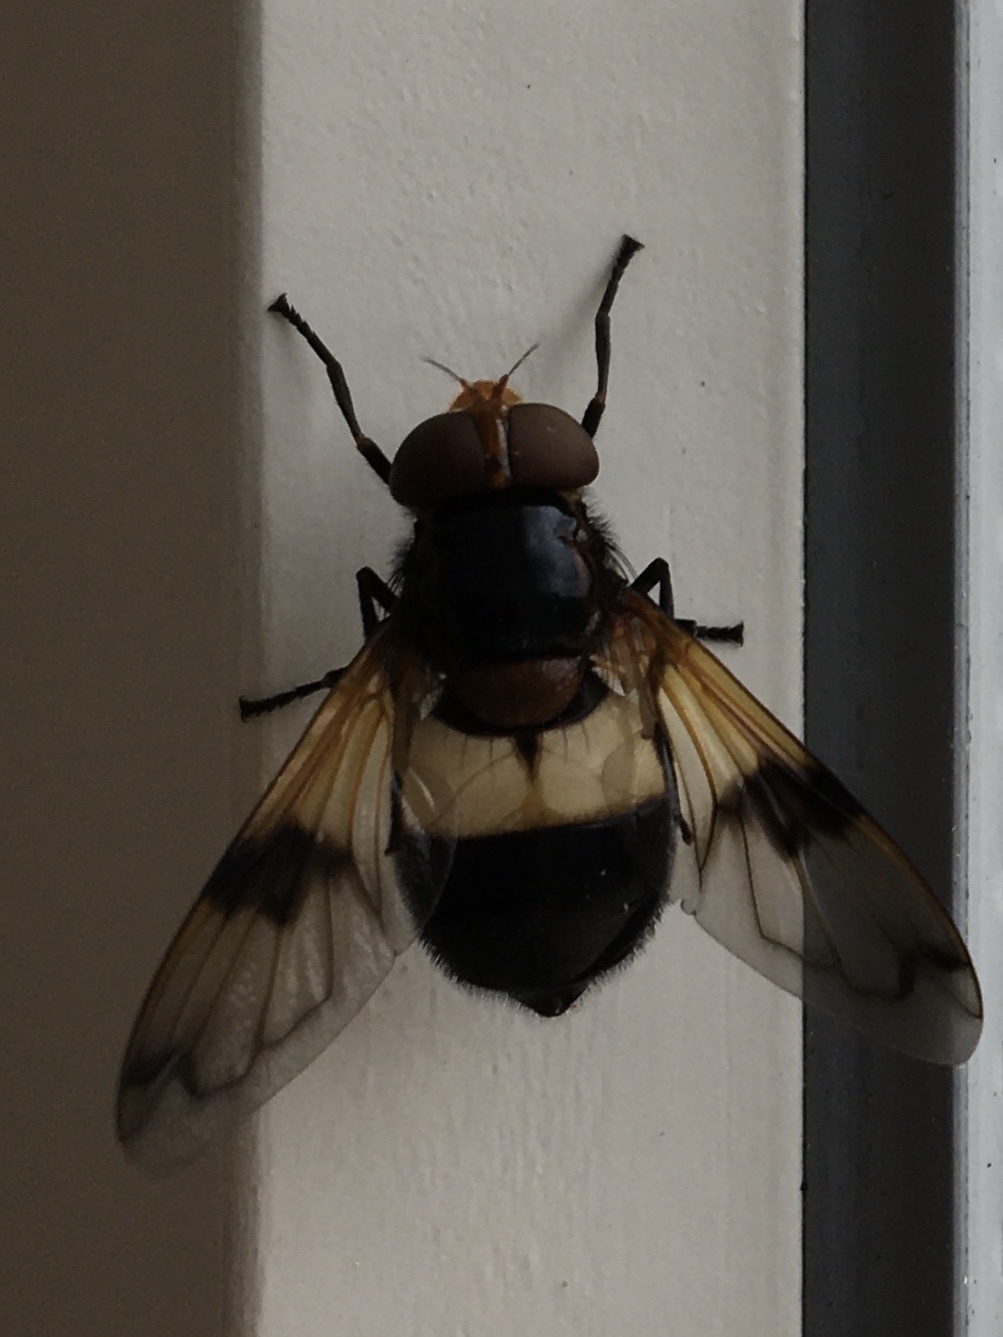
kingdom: Animalia
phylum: Arthropoda
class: Insecta
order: Diptera
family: Syrphidae
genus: Volucella
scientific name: Volucella pellucens
